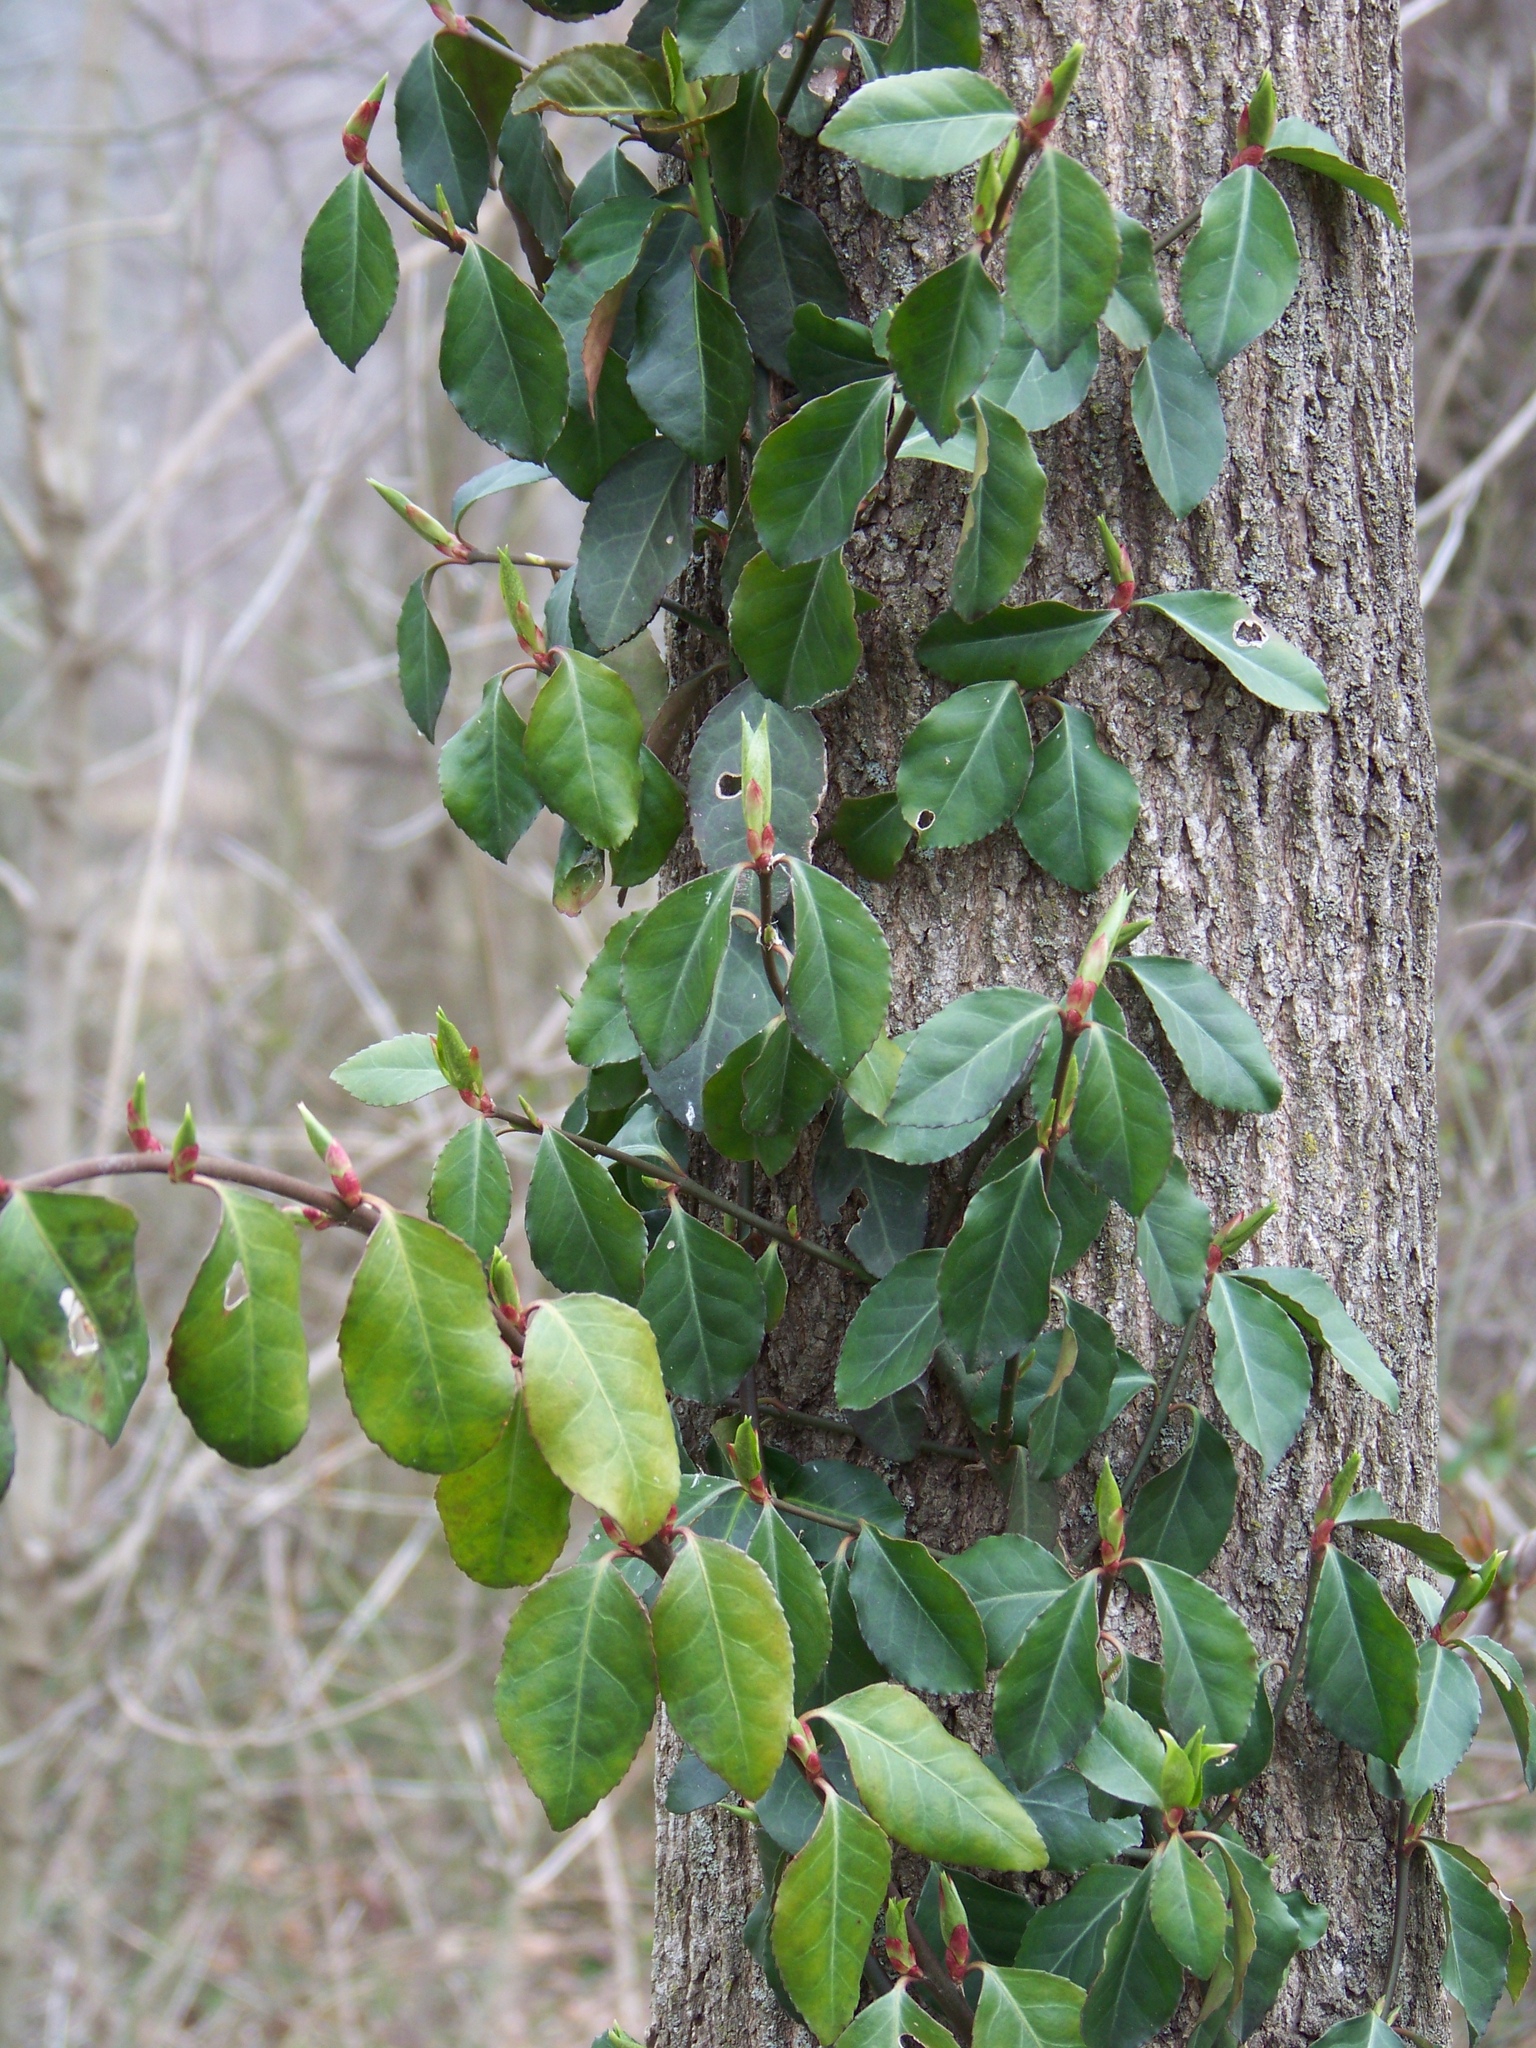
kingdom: Plantae
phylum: Tracheophyta
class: Magnoliopsida
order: Celastrales
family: Celastraceae
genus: Euonymus
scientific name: Euonymus fortunei
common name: Climbing euonymus
